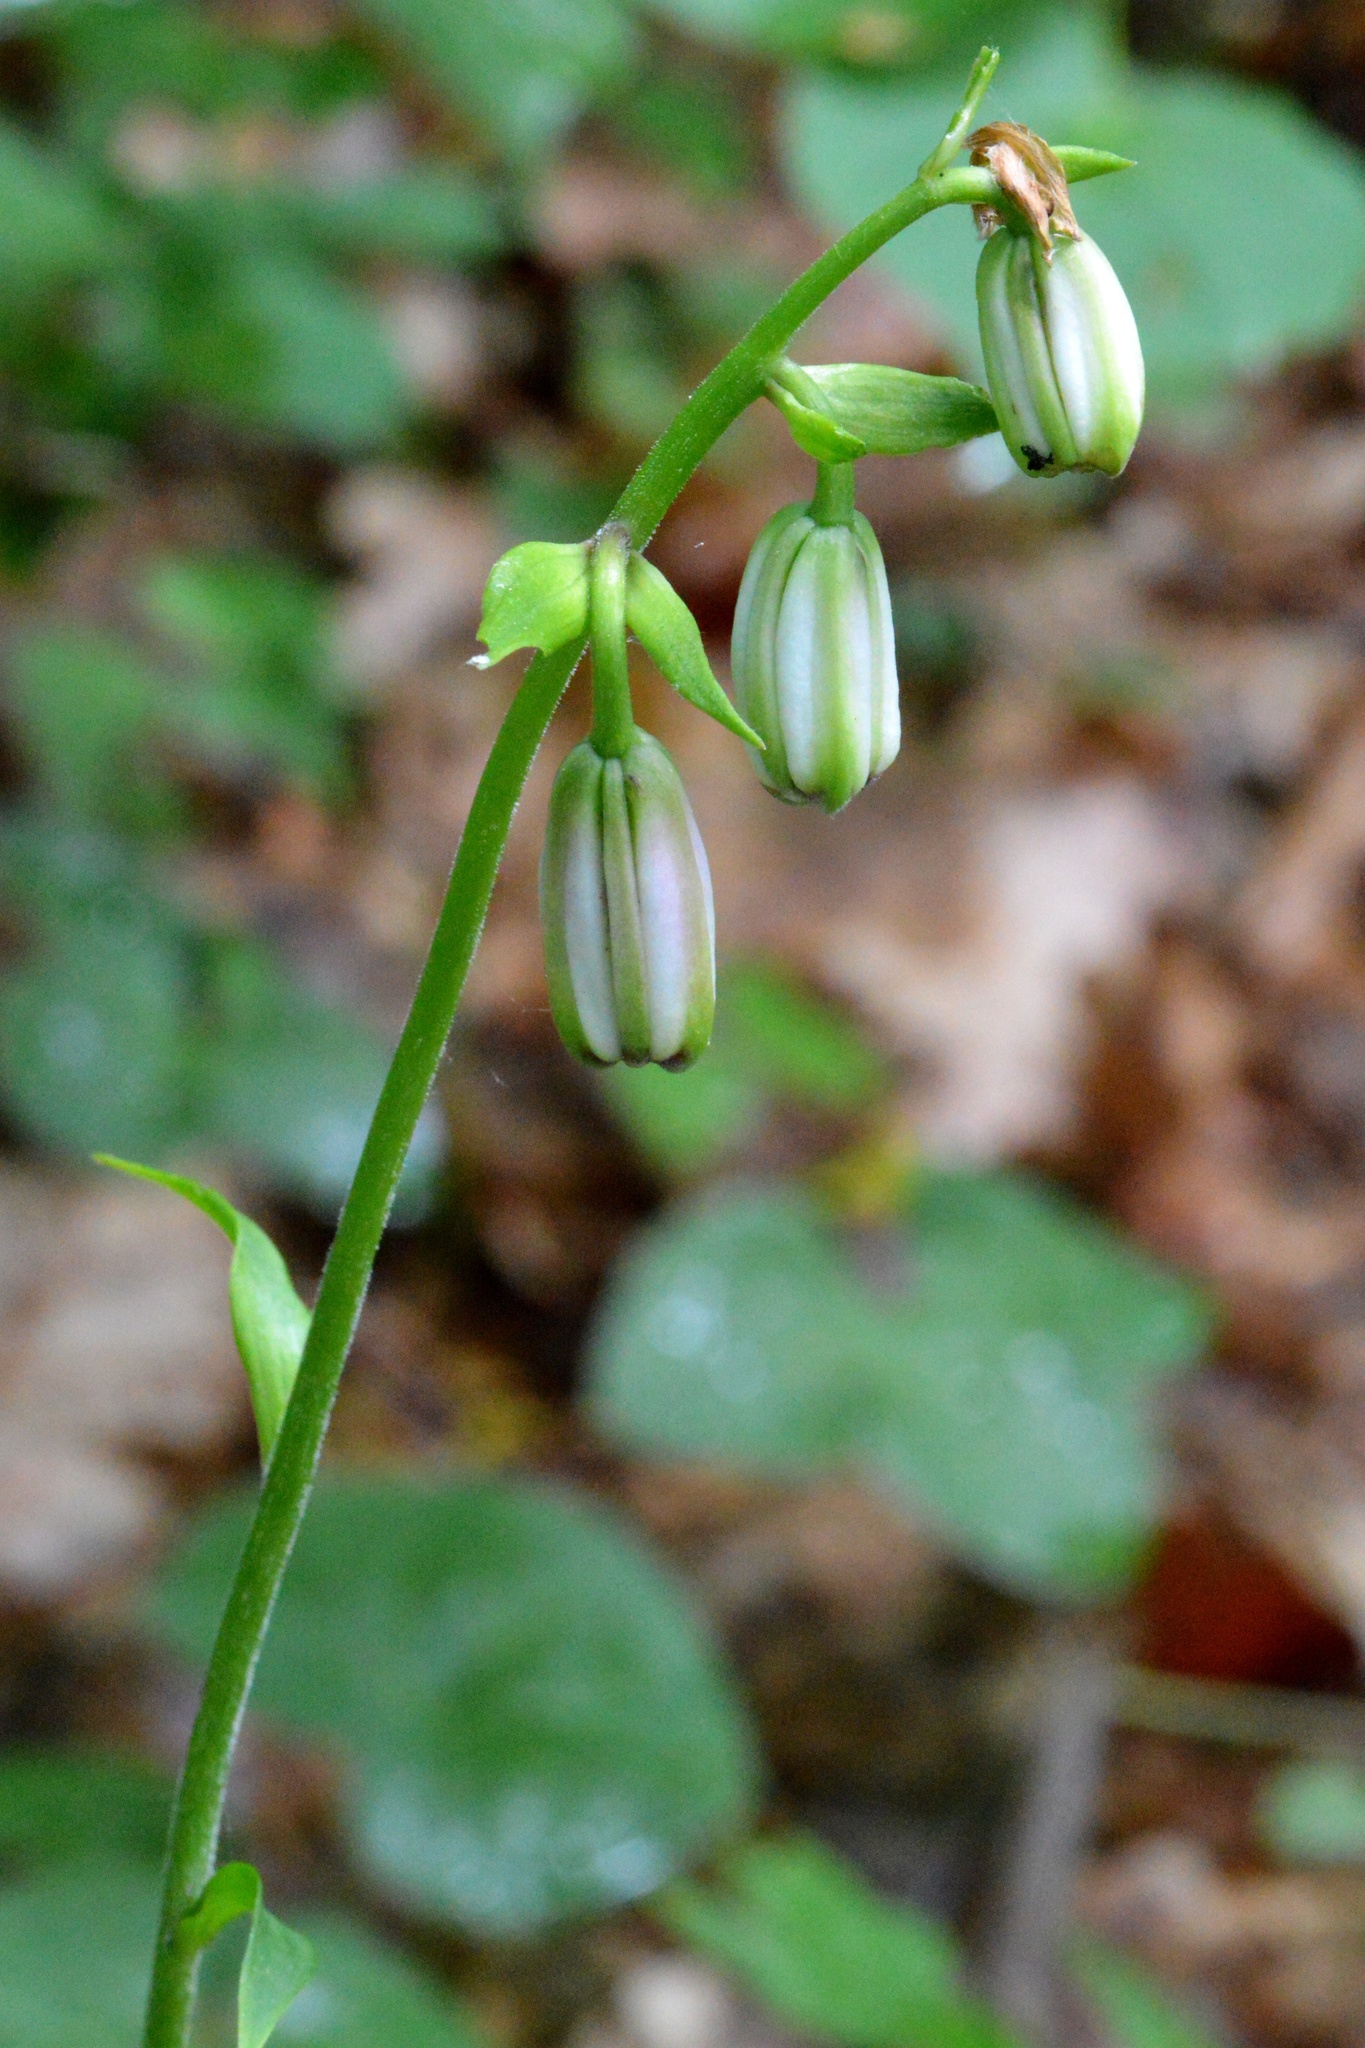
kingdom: Plantae
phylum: Tracheophyta
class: Liliopsida
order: Liliales
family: Liliaceae
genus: Lilium
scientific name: Lilium martagon
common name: Martagon lily
